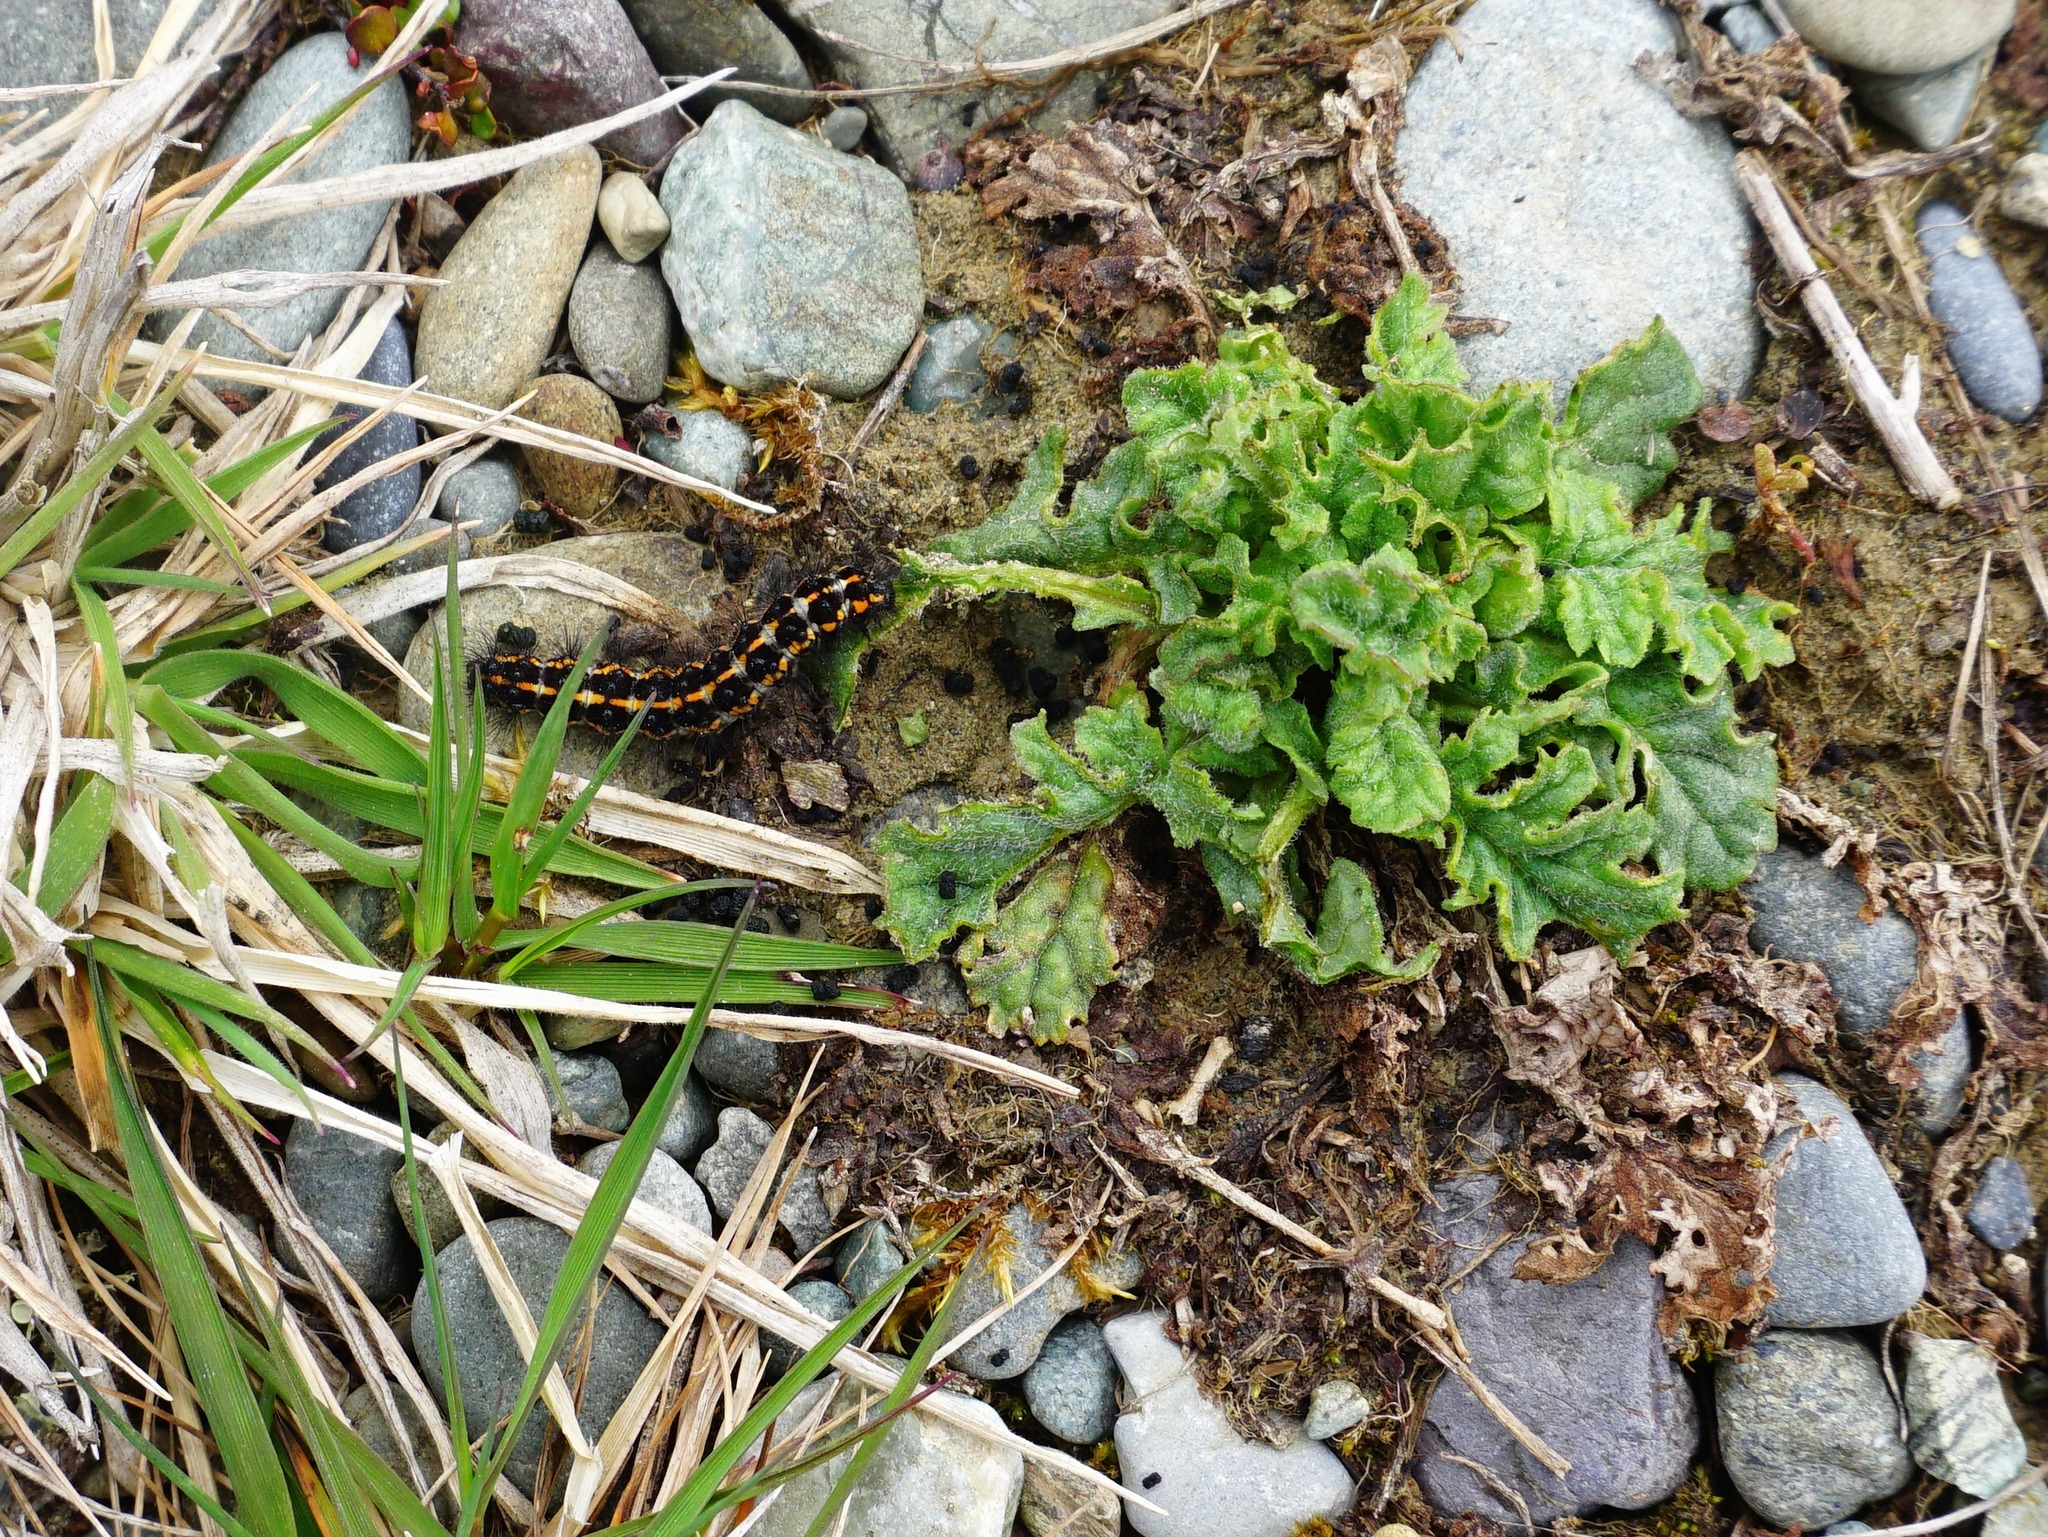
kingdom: Animalia
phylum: Arthropoda
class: Insecta
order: Lepidoptera
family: Erebidae
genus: Nyctemera
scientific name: Nyctemera annulatum
